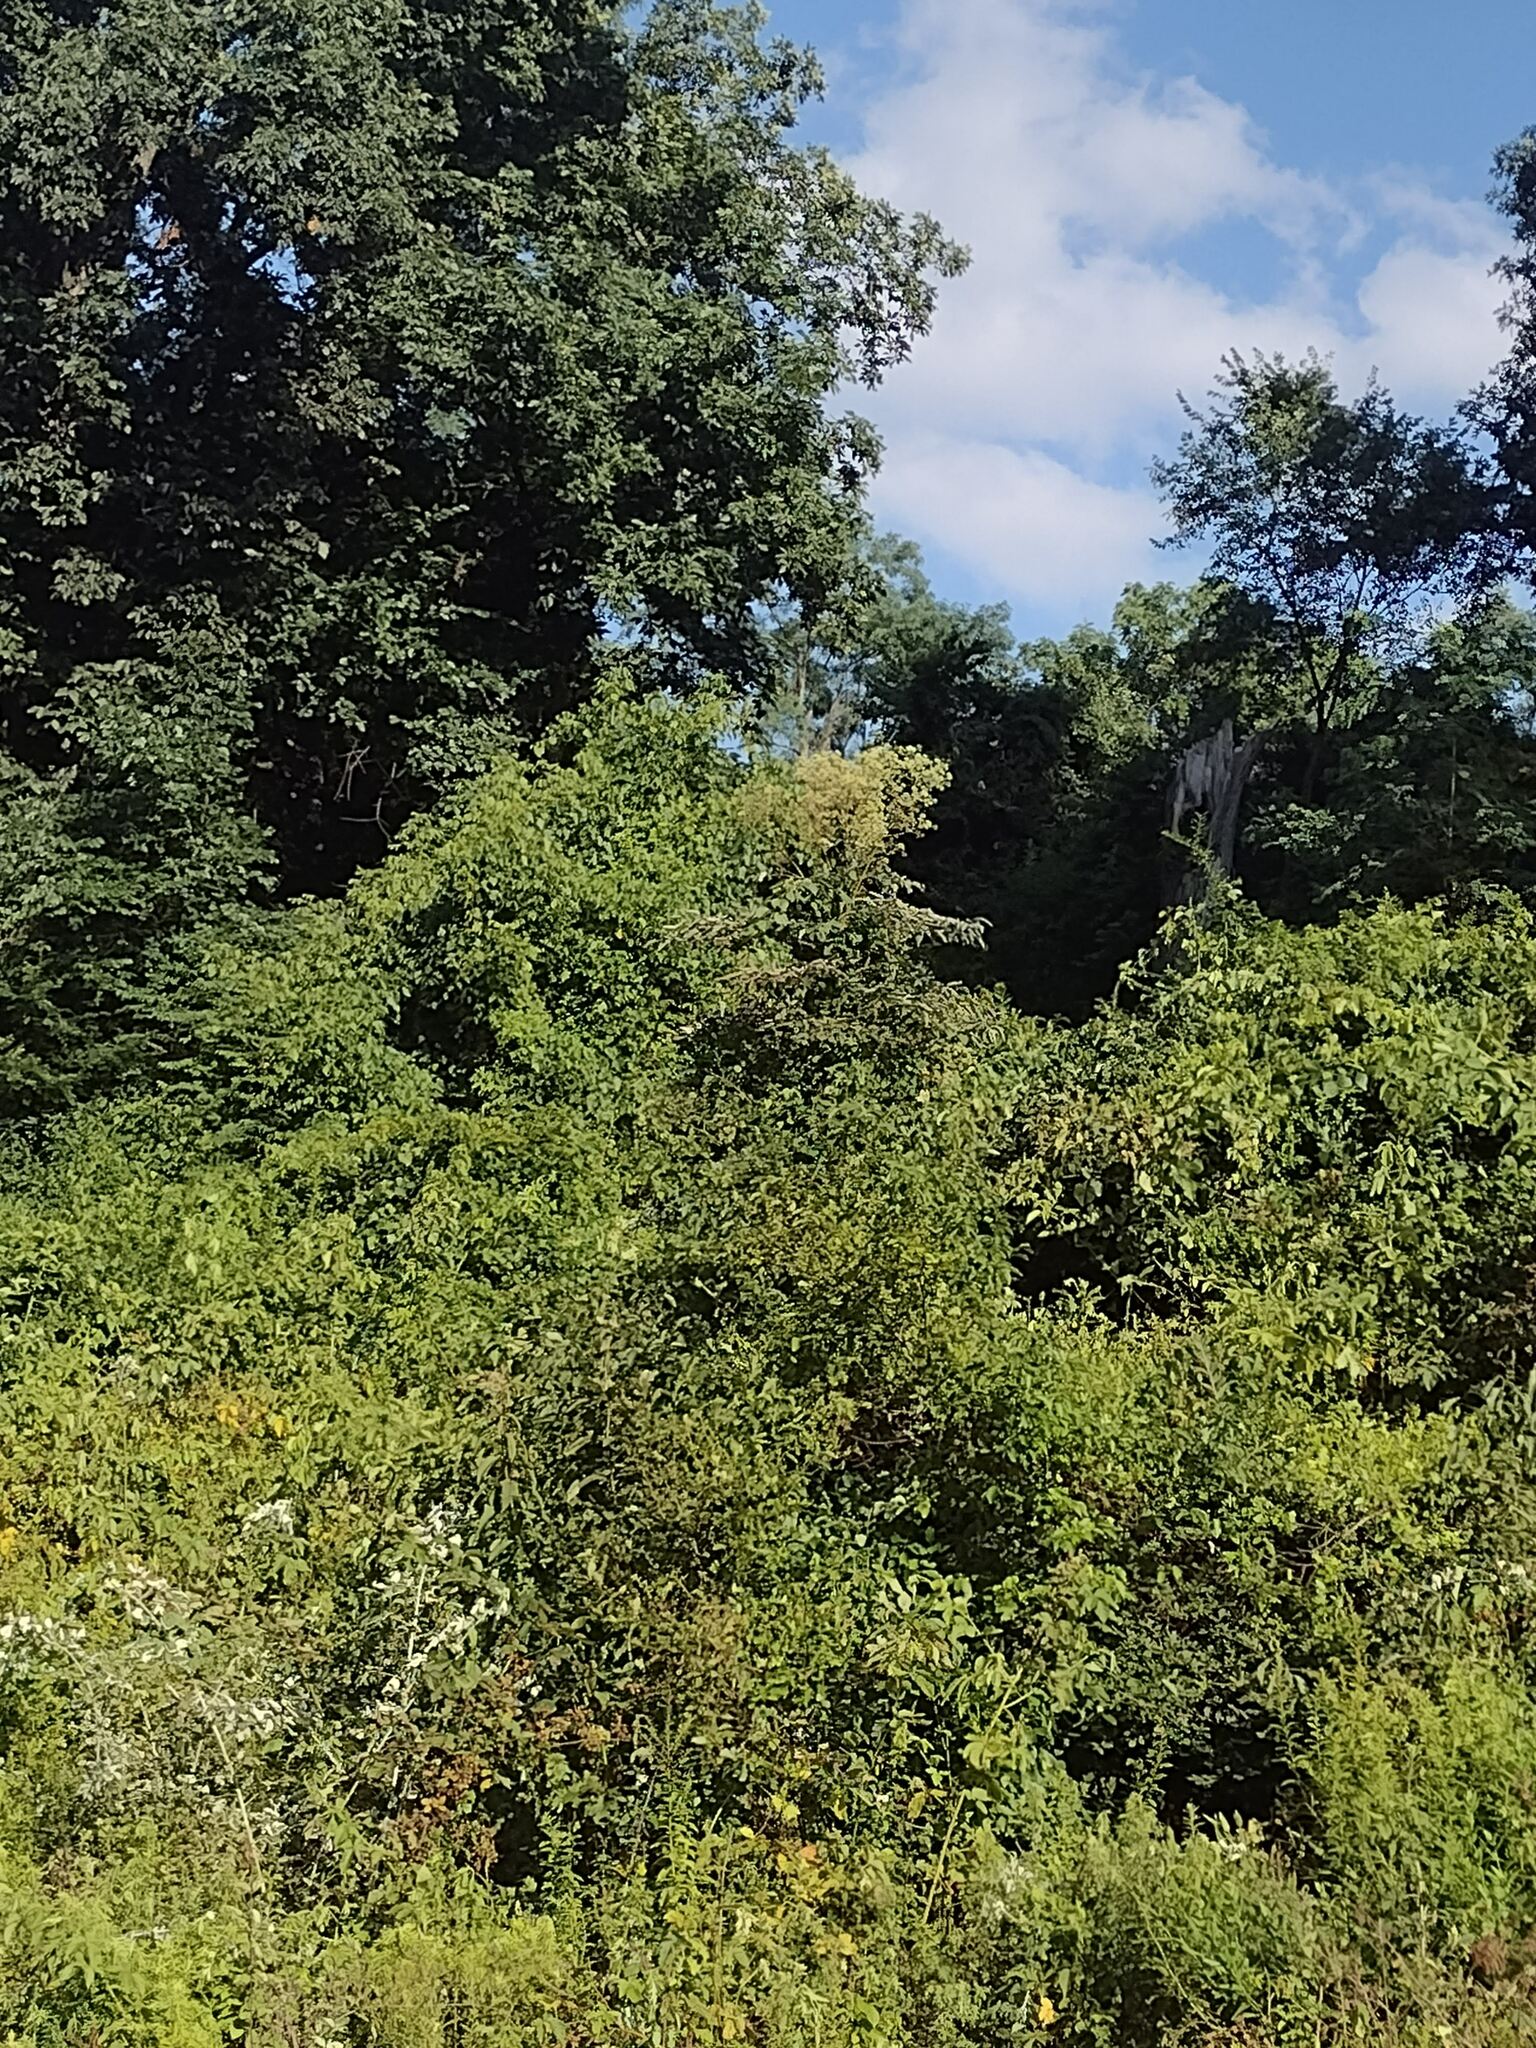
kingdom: Plantae
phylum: Tracheophyta
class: Magnoliopsida
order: Apiales
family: Araliaceae
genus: Aralia
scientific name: Aralia elata
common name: Japanese angelica-tree
